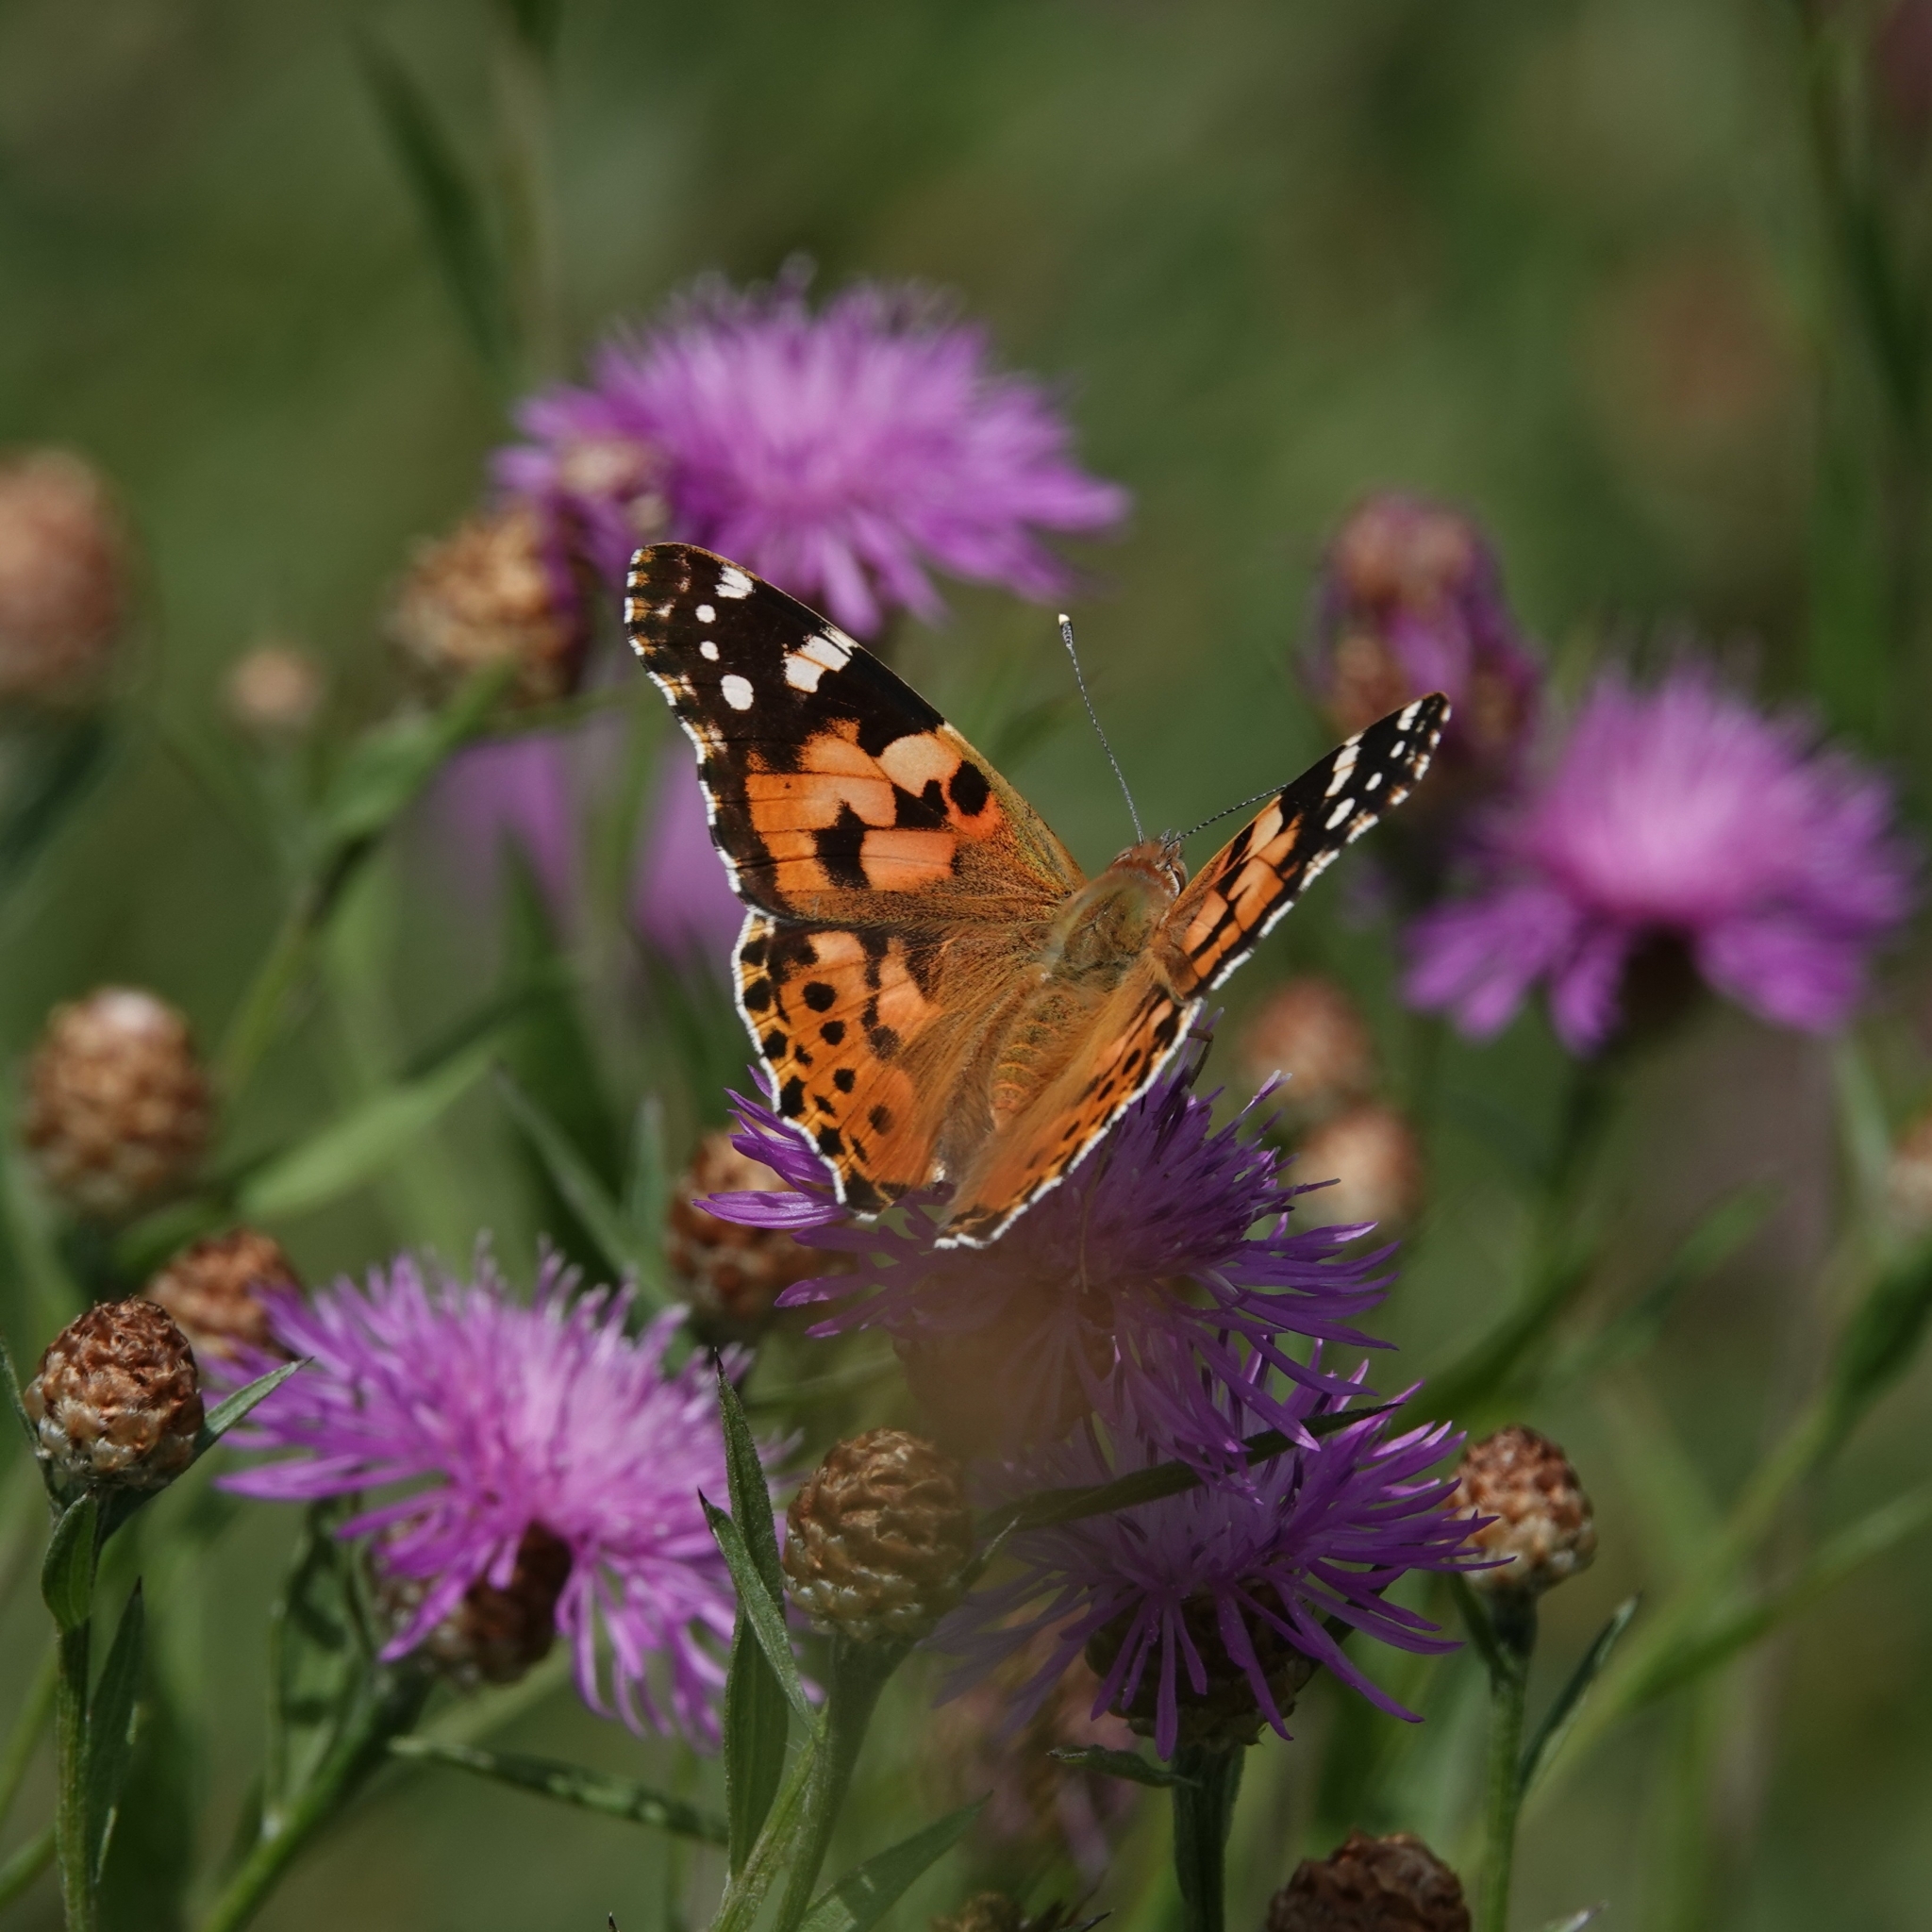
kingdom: Animalia
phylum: Arthropoda
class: Insecta
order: Lepidoptera
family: Nymphalidae
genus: Vanessa
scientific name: Vanessa cardui
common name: Painted lady
